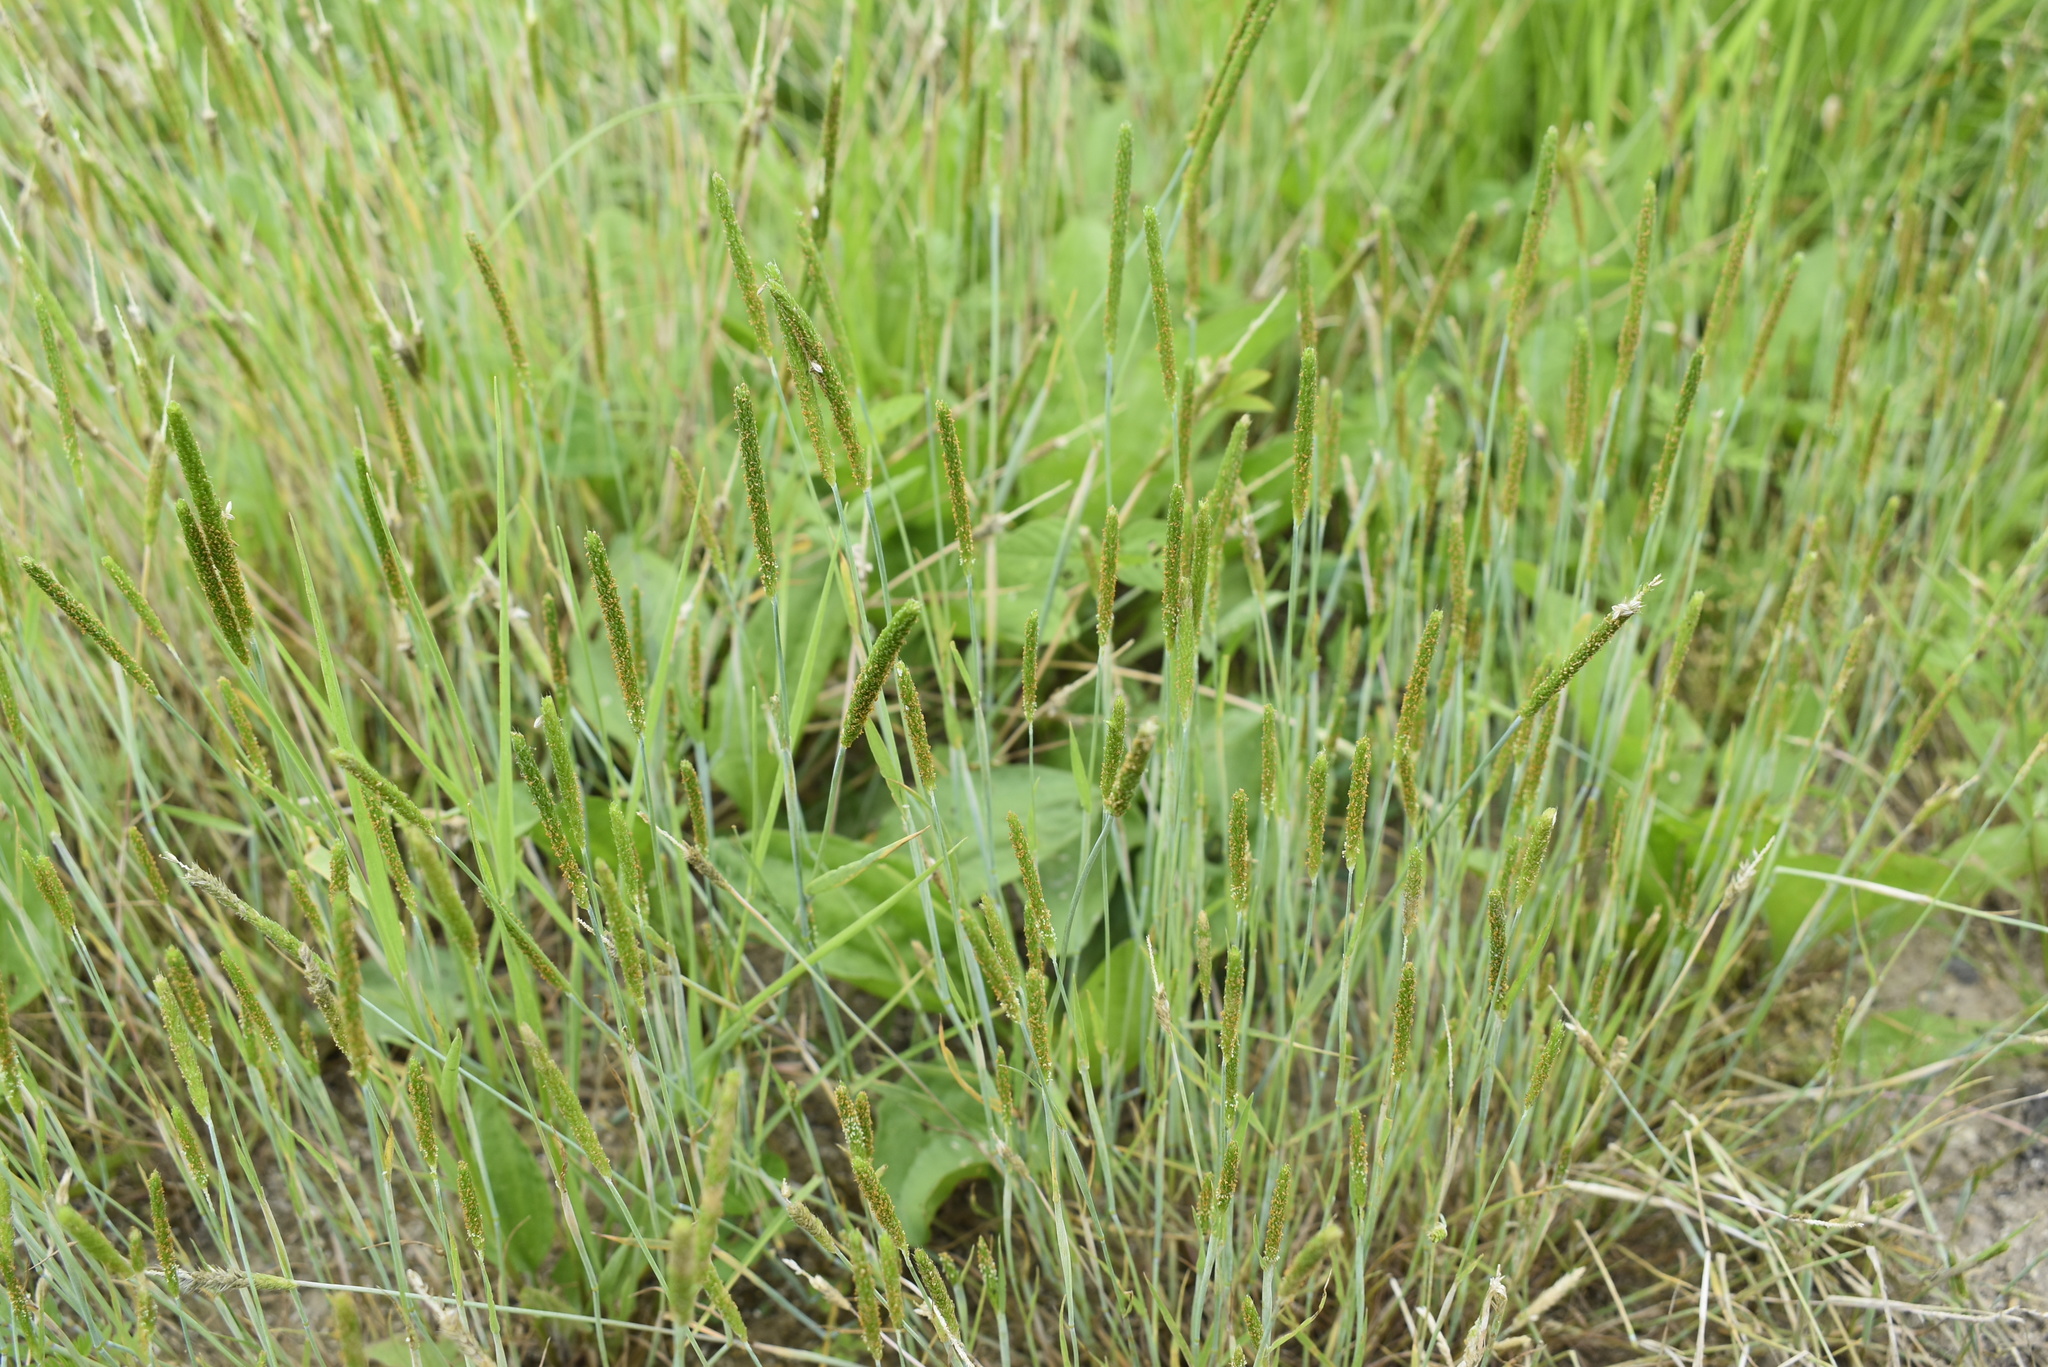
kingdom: Plantae
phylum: Tracheophyta
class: Liliopsida
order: Poales
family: Poaceae
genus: Alopecurus
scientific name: Alopecurus aequalis
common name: Orange foxtail
